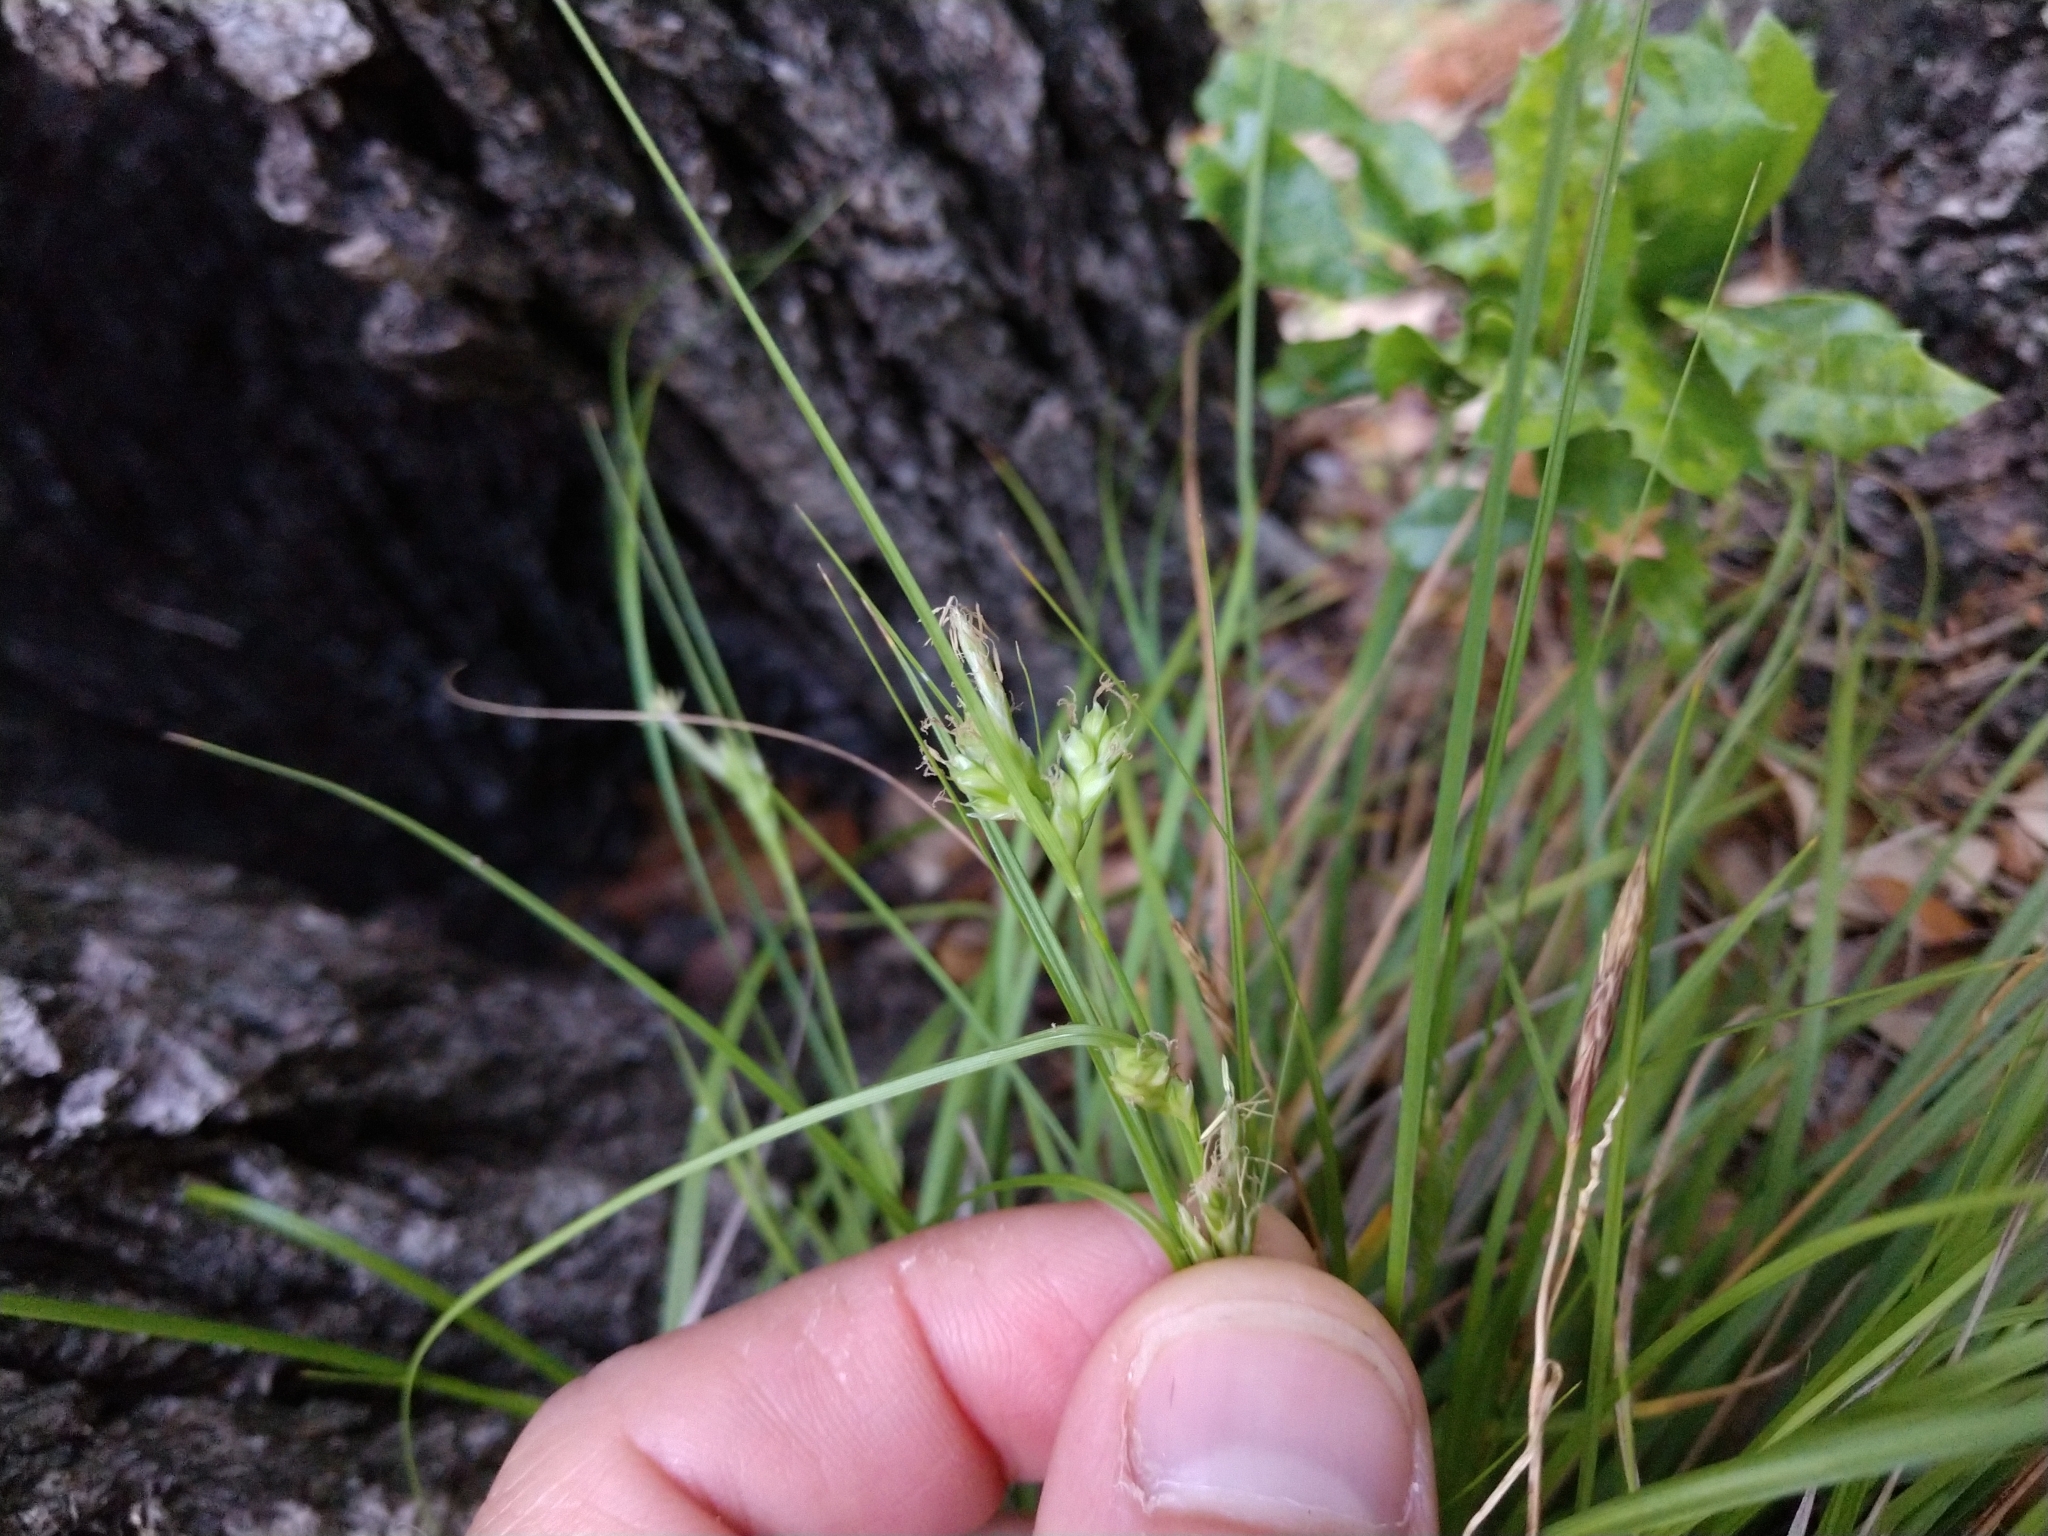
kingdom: Plantae
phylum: Tracheophyta
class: Liliopsida
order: Poales
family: Cyperaceae
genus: Carex
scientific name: Carex planostachys
